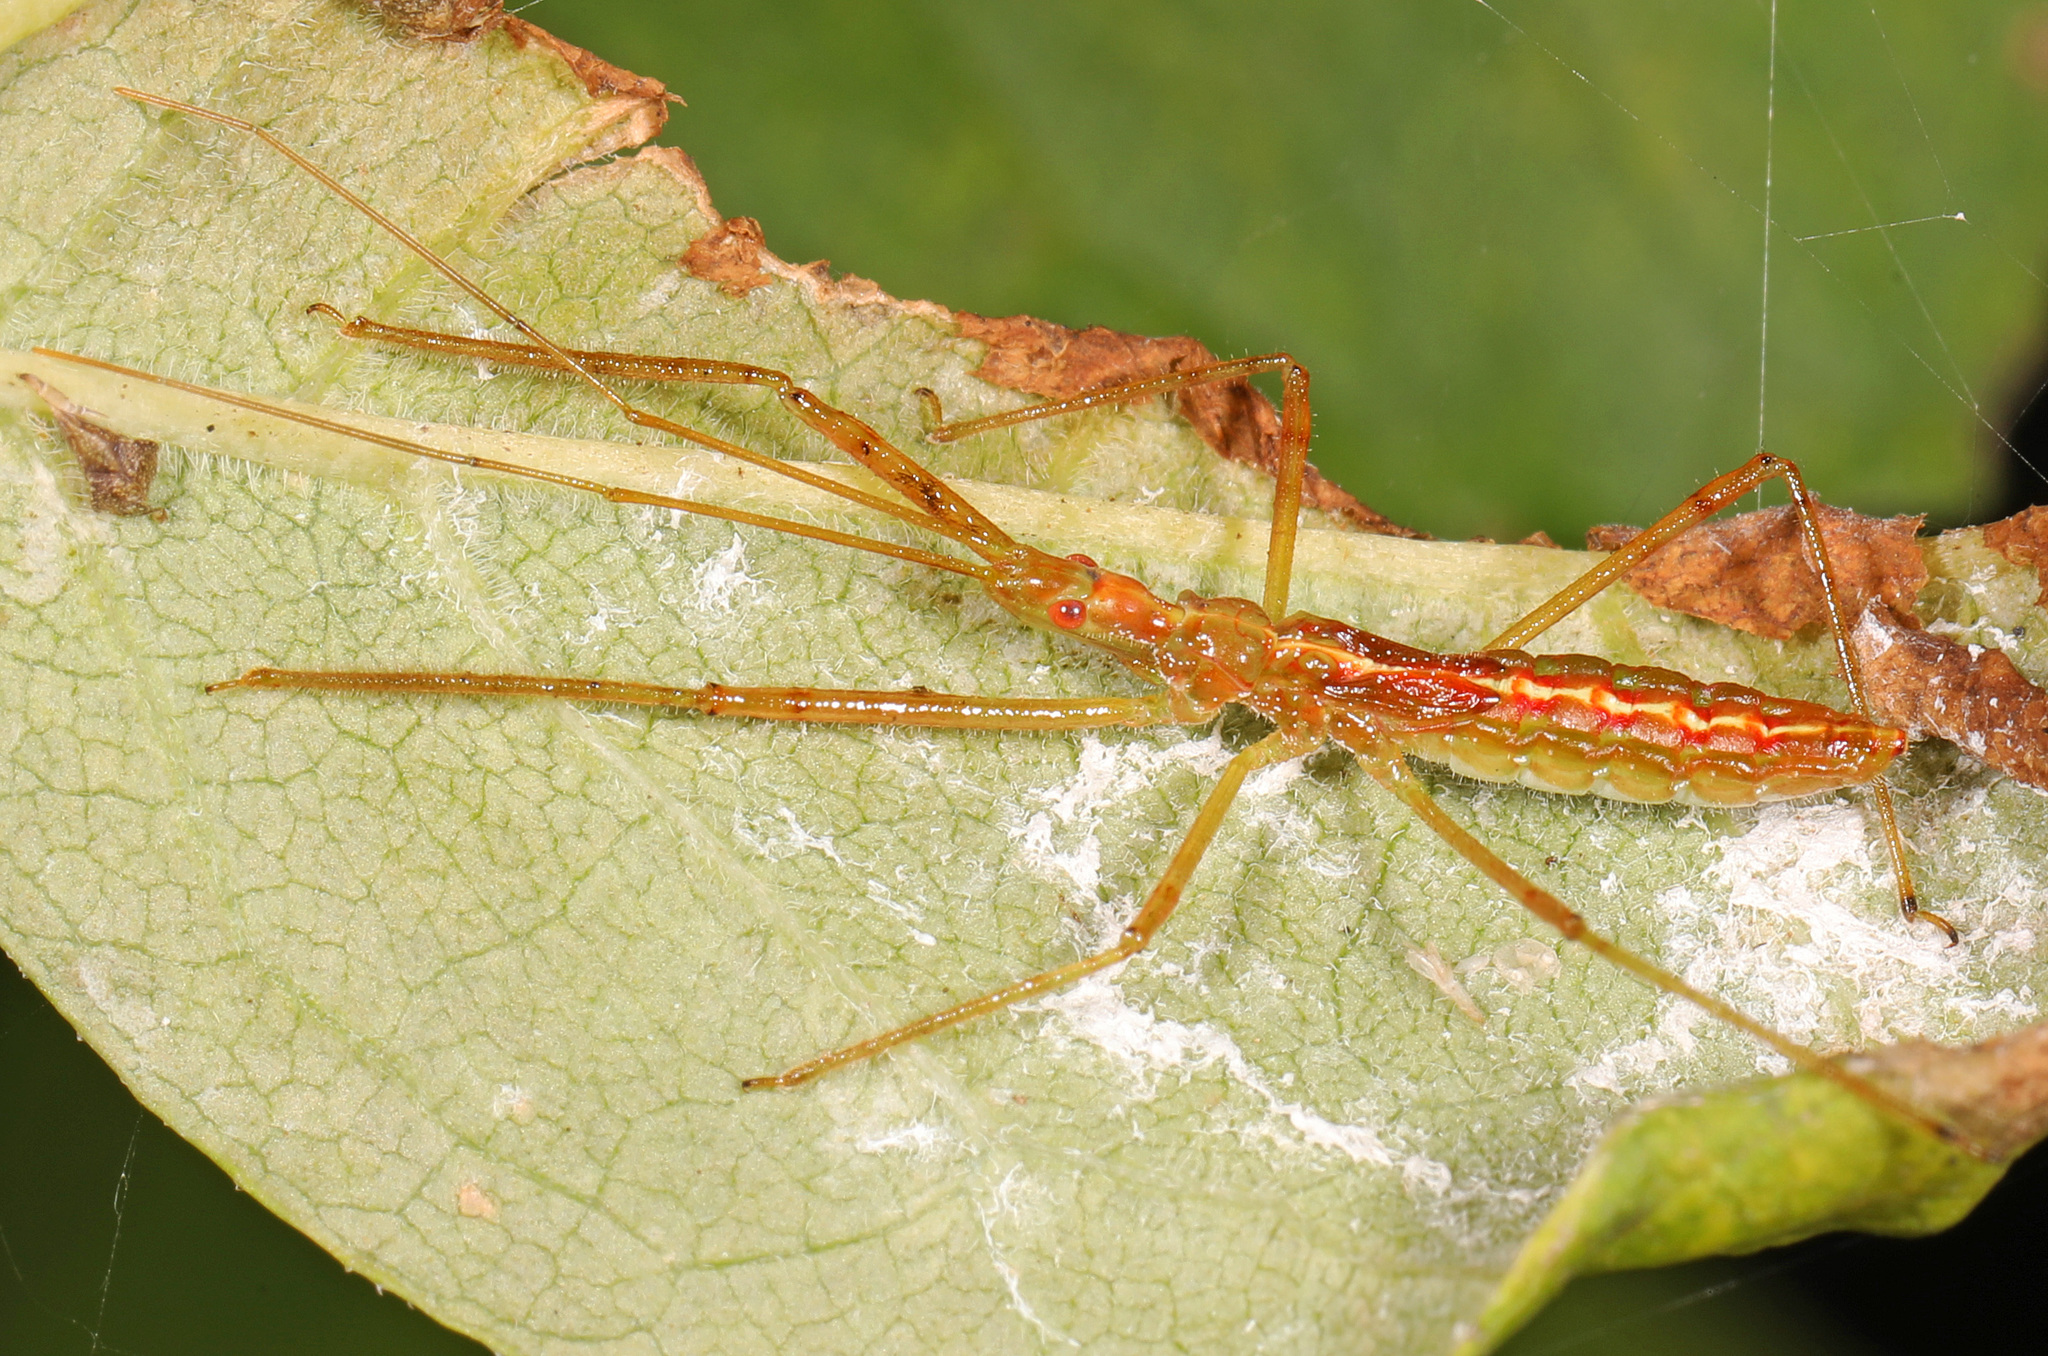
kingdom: Animalia
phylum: Arthropoda
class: Insecta
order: Hemiptera
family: Reduviidae
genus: Zelus
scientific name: Zelus luridus
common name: Pale green assassin bug
